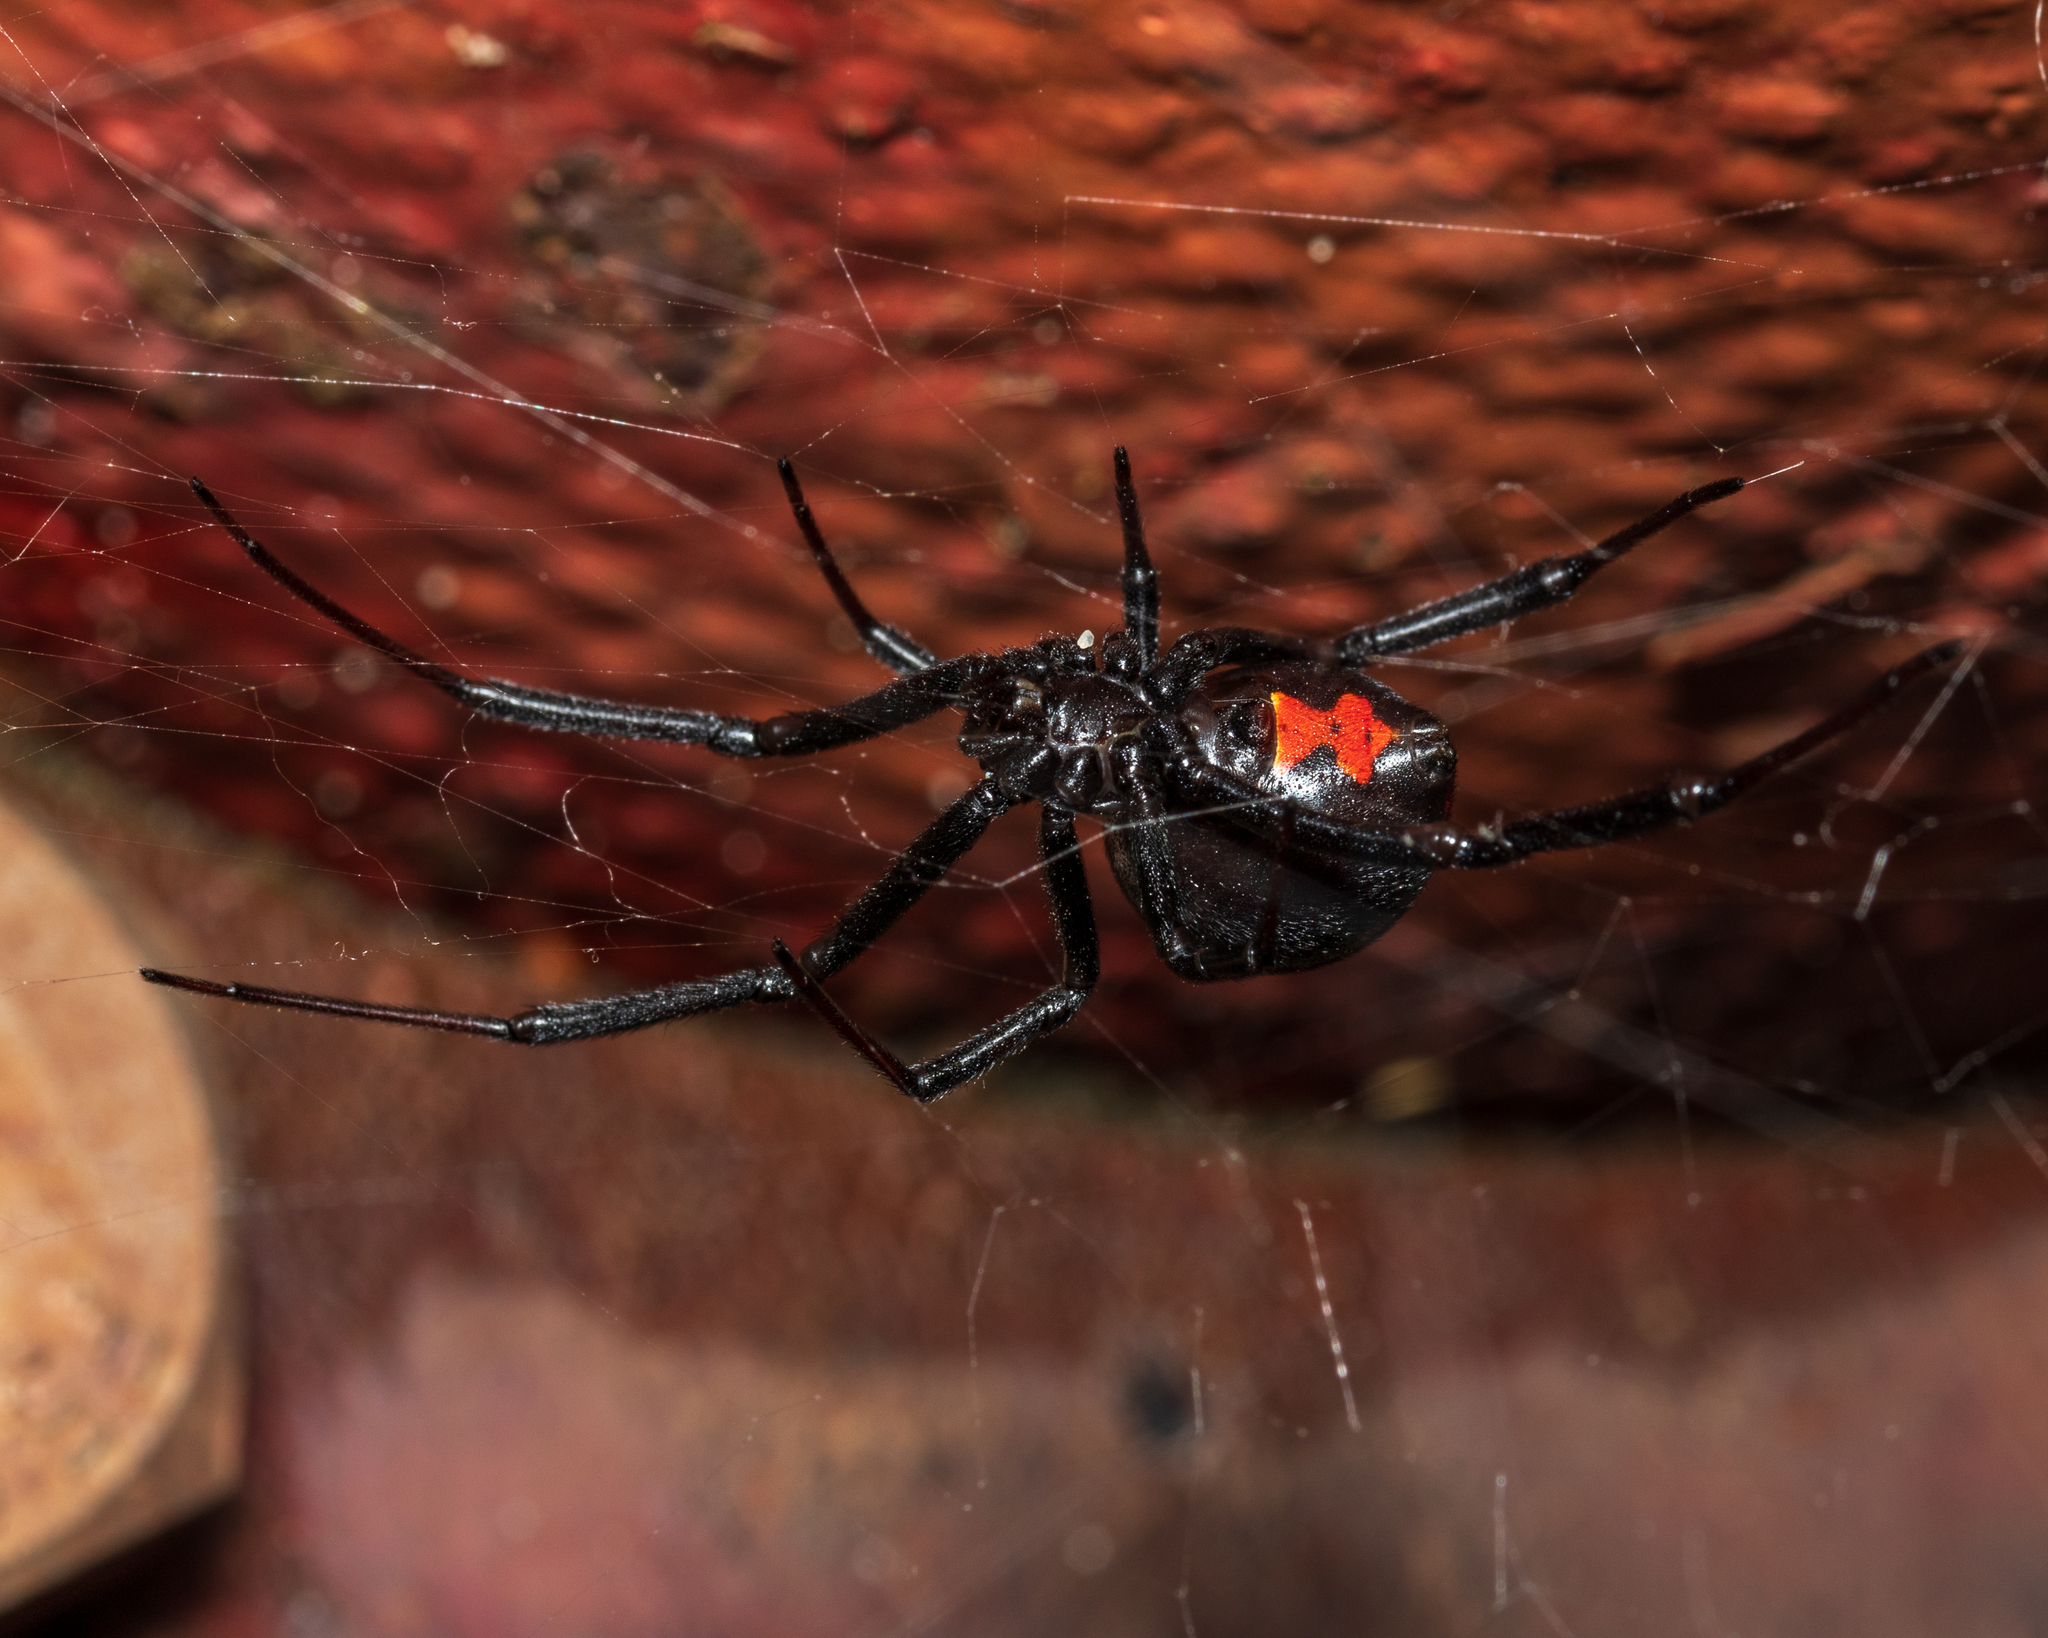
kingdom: Animalia
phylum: Arthropoda
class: Arachnida
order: Araneae
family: Theridiidae
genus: Latrodectus
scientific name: Latrodectus mactans
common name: Cobweb spiders
